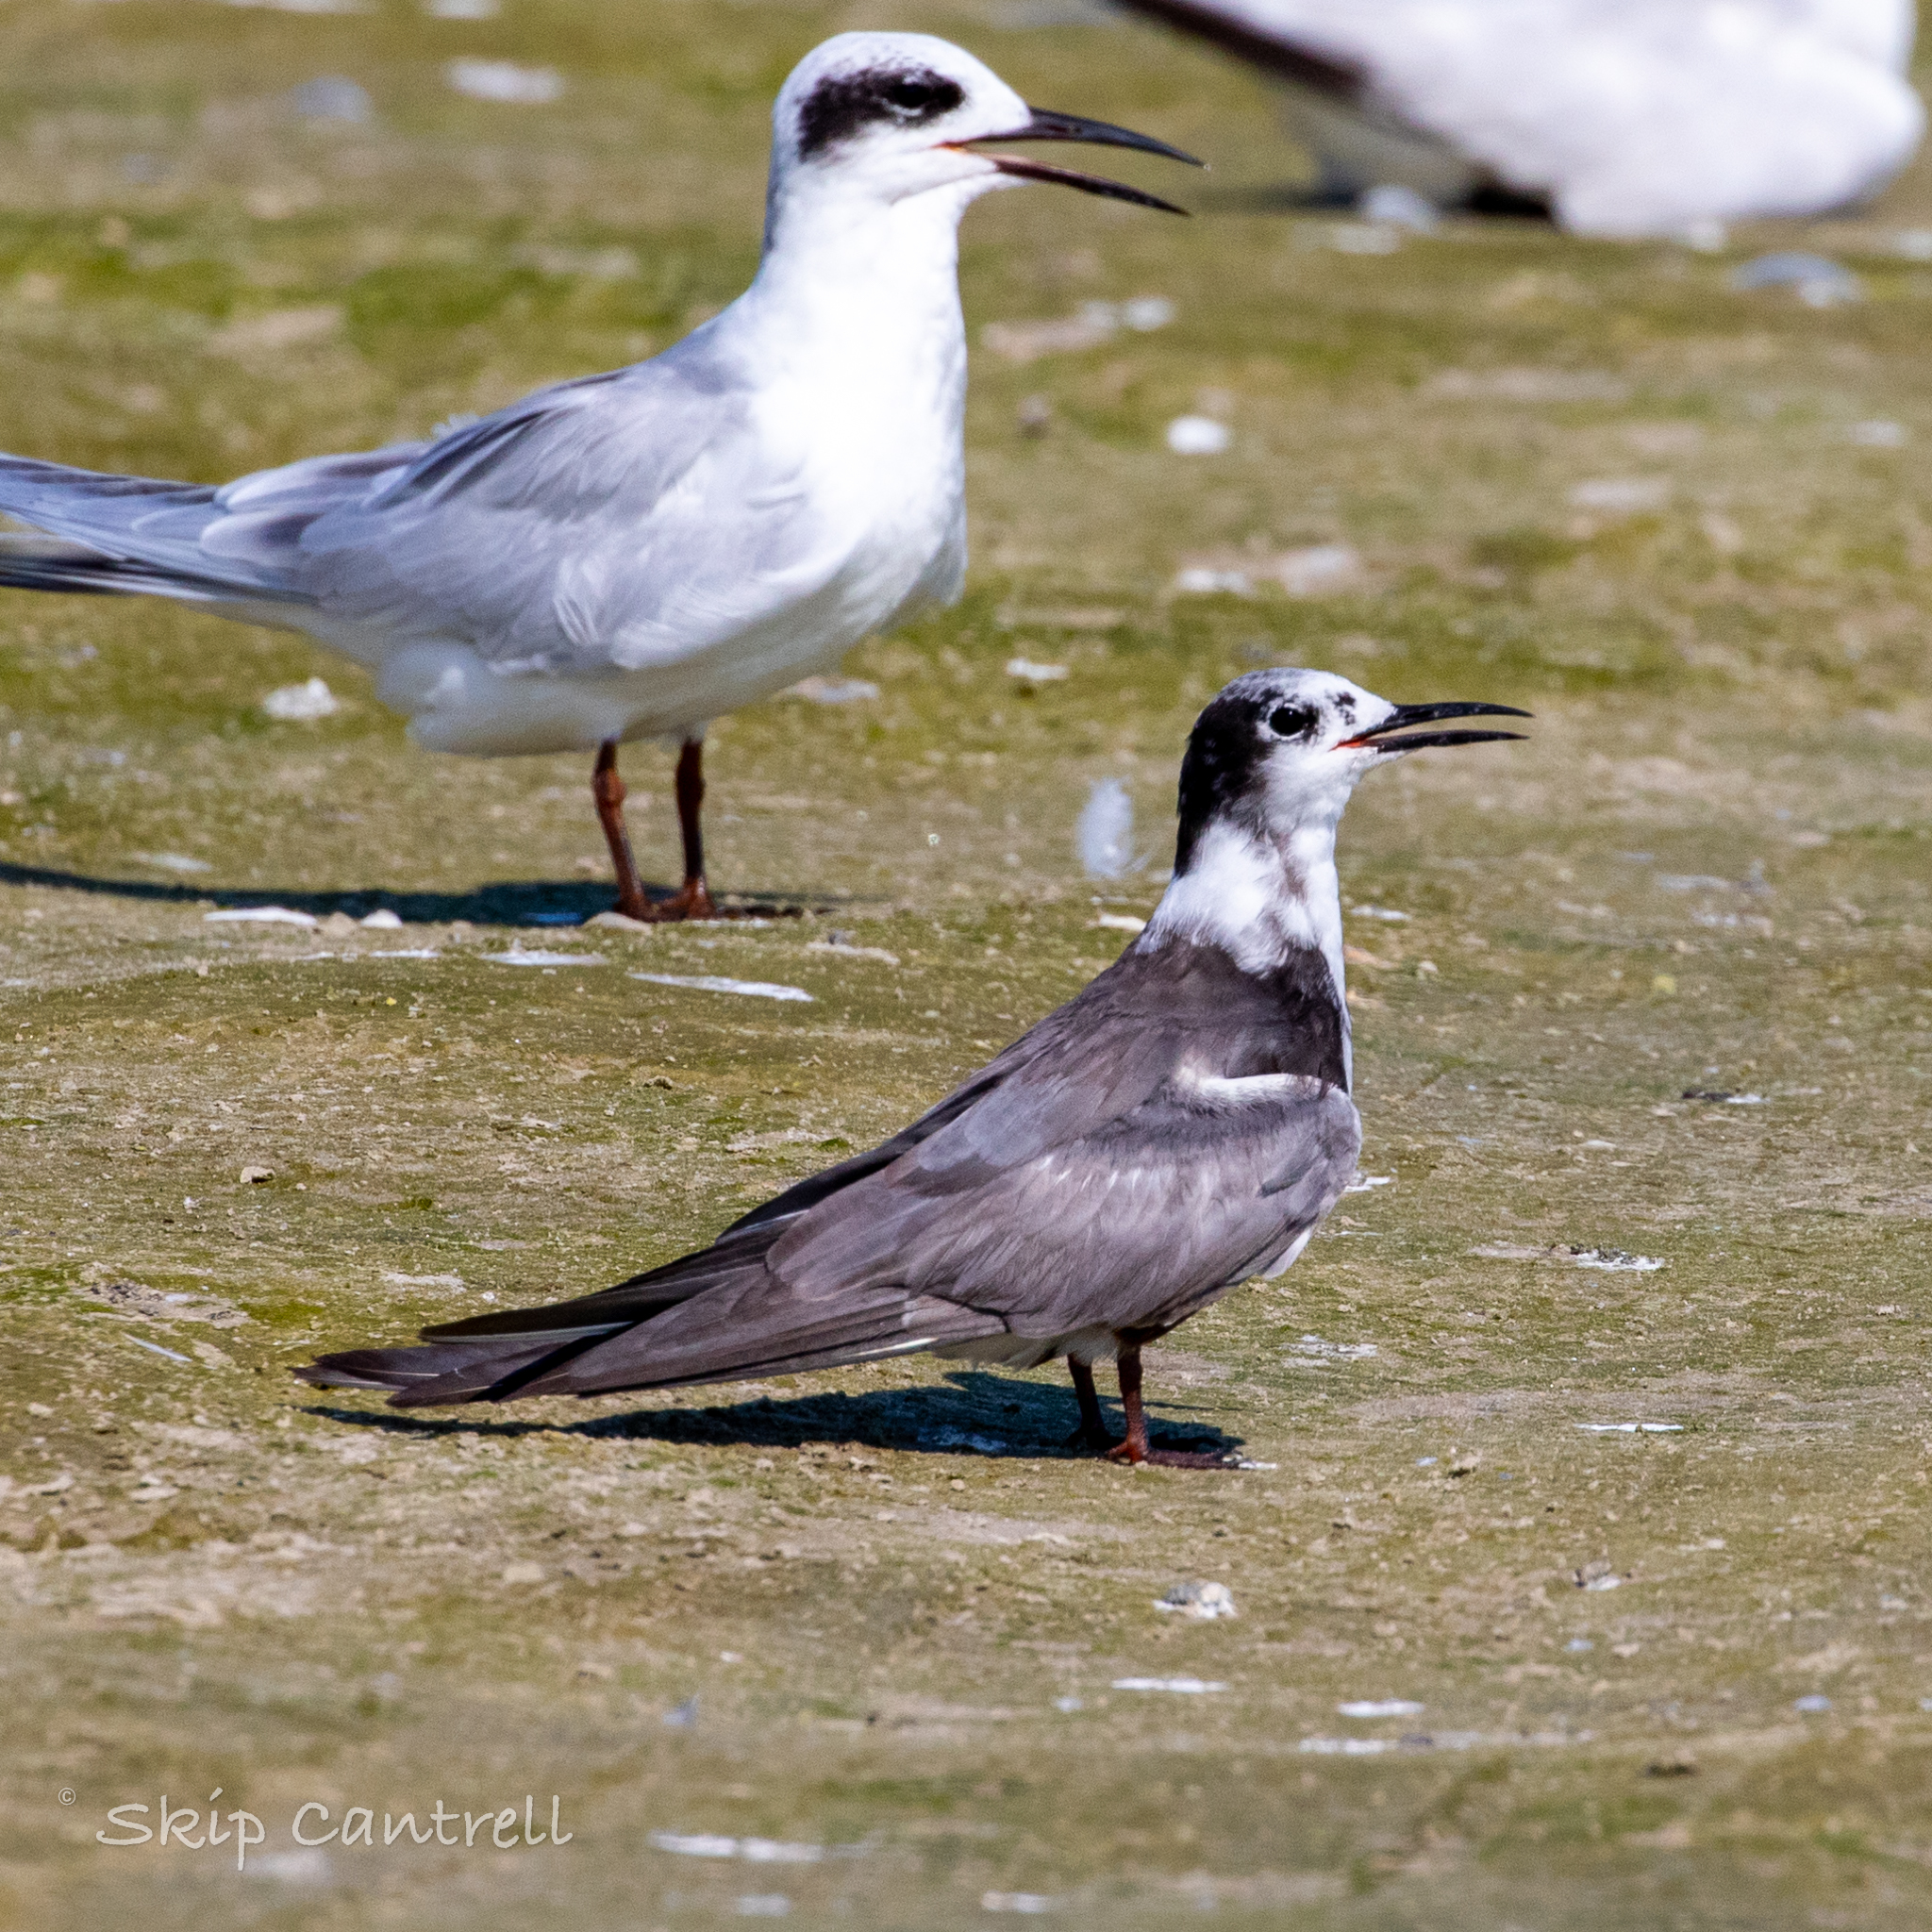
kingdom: Animalia
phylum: Chordata
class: Aves
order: Charadriiformes
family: Laridae
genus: Chlidonias
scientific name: Chlidonias niger
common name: Black tern
